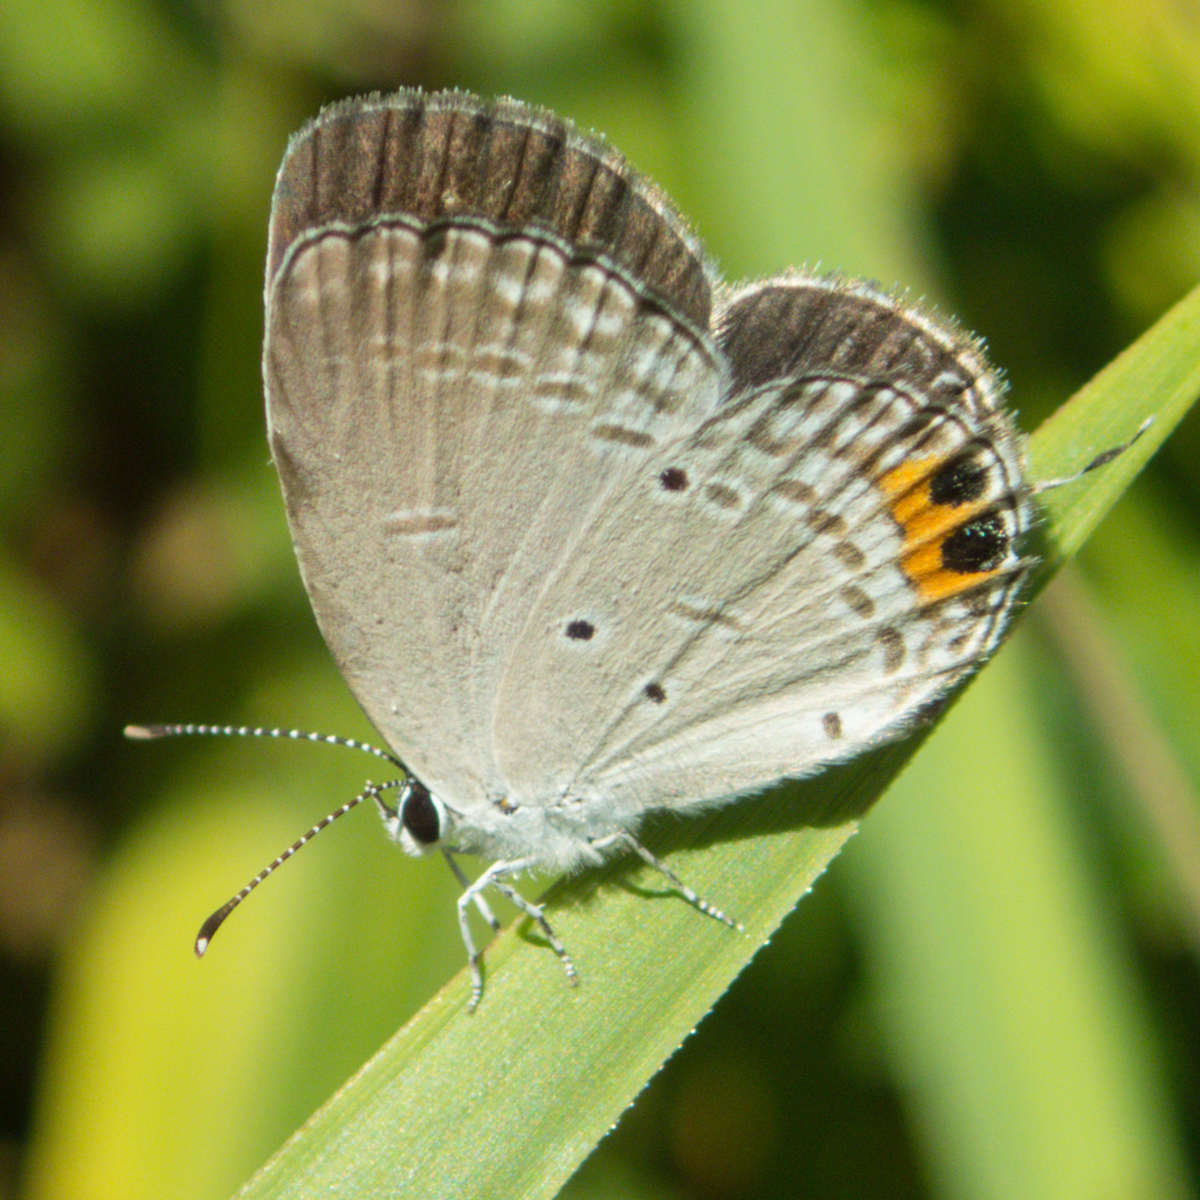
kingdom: Animalia
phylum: Arthropoda
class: Insecta
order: Lepidoptera
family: Lycaenidae
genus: Everes
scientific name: Everes lacturnus
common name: Orange-tipped pea-blue
